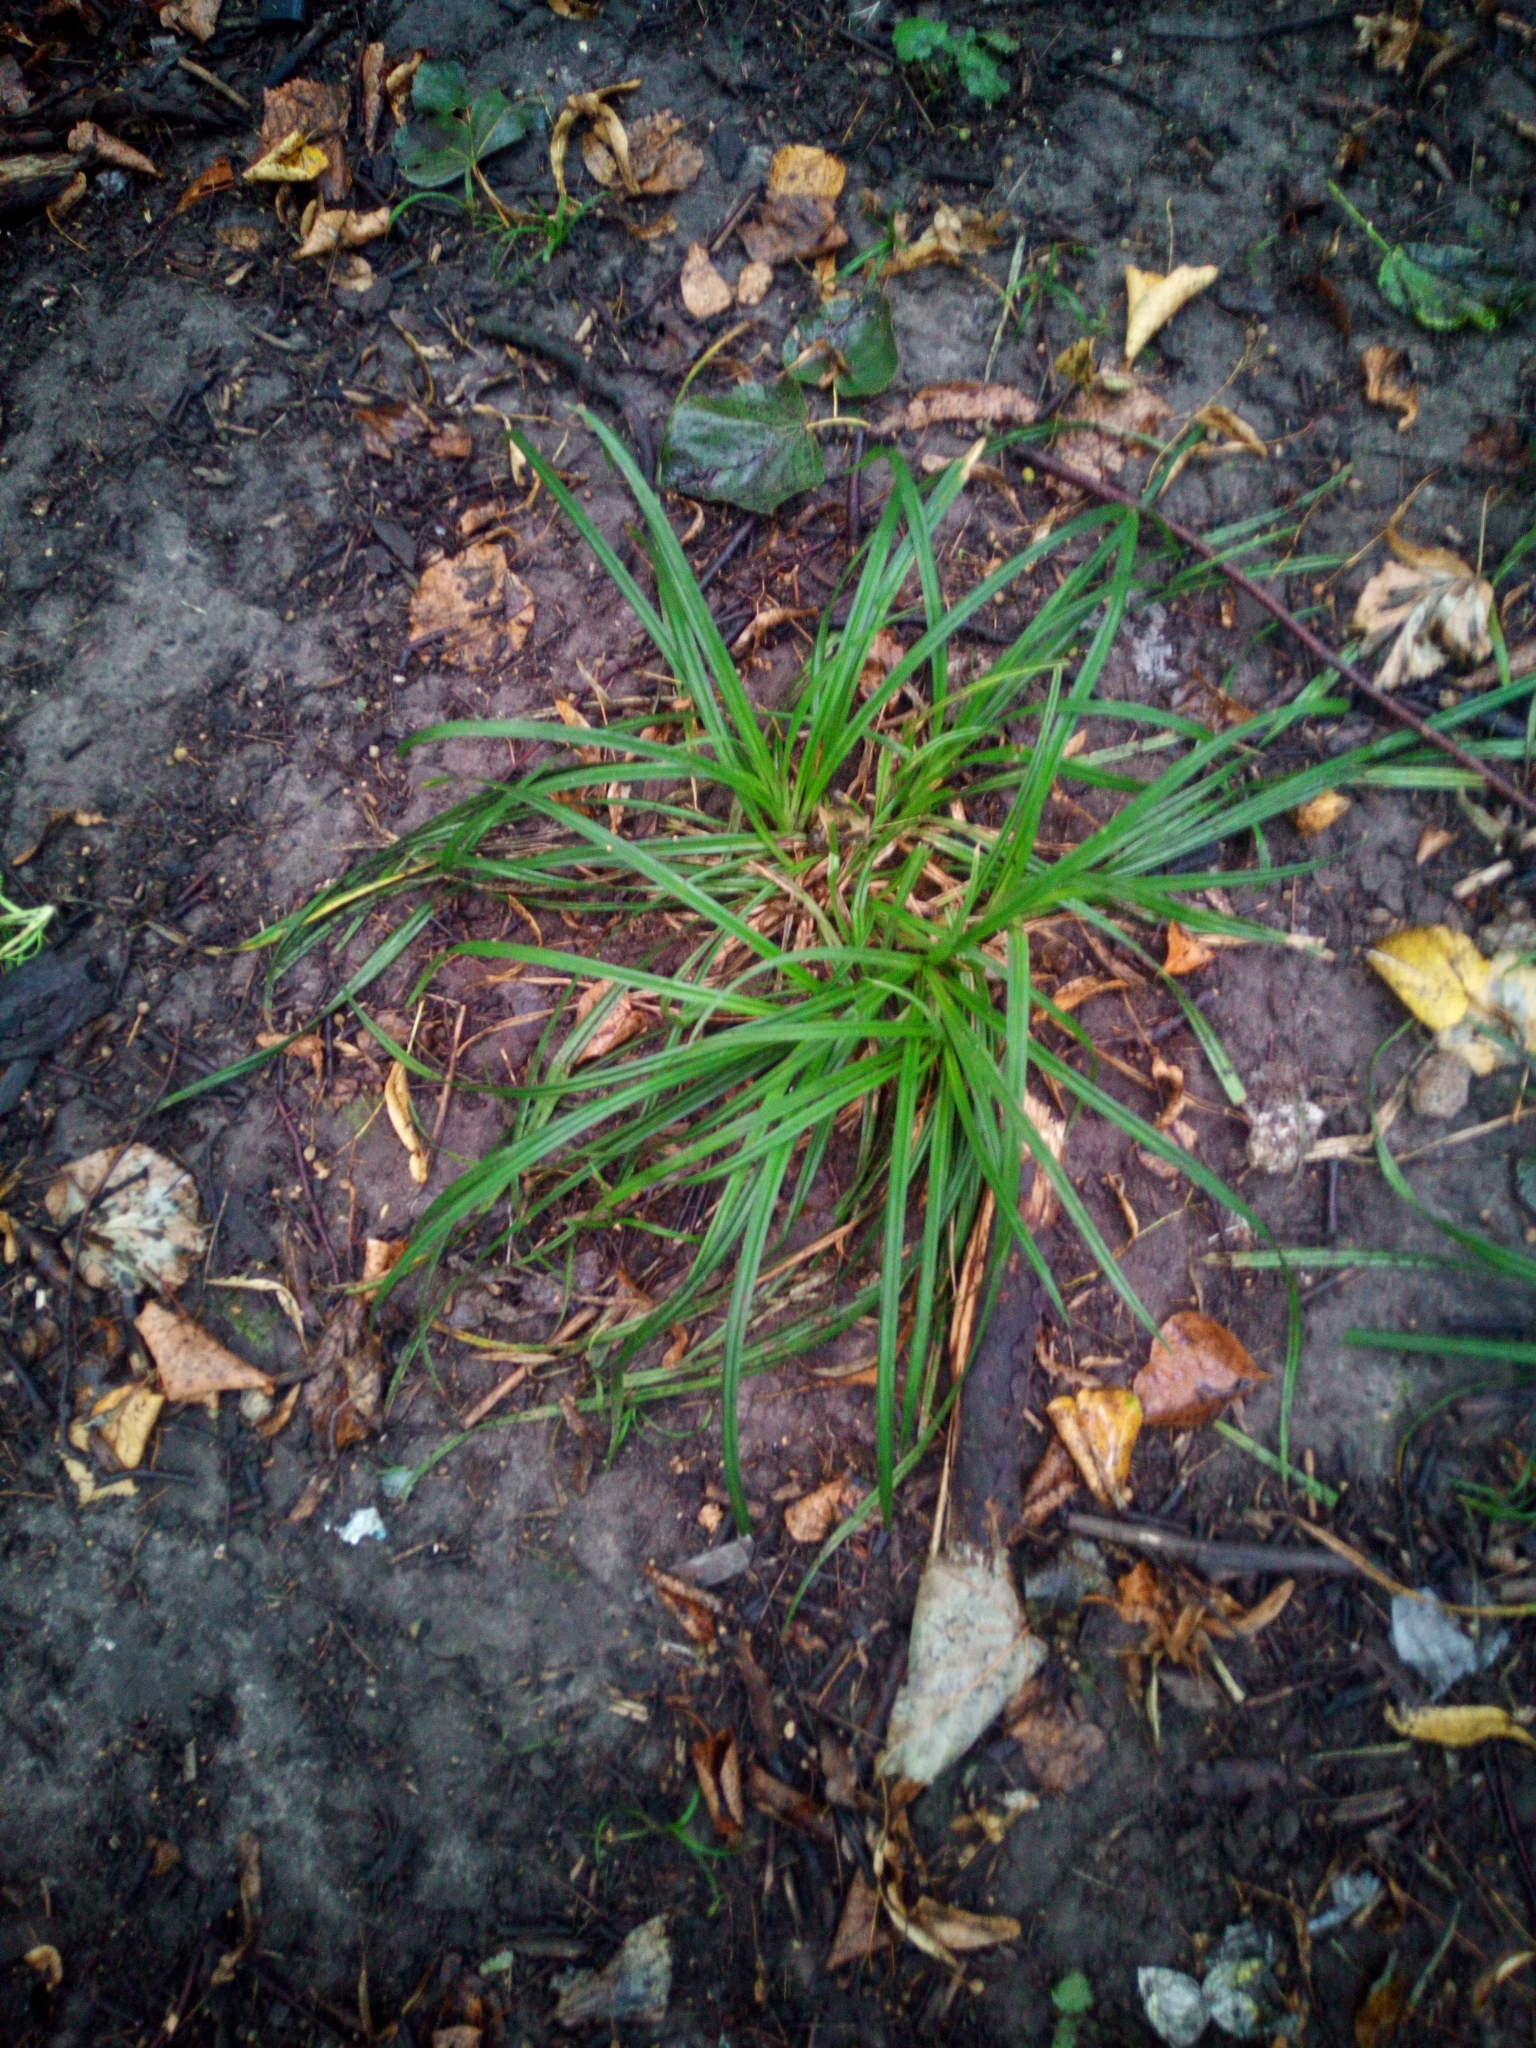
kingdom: Plantae
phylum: Tracheophyta
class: Liliopsida
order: Poales
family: Cyperaceae
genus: Carex
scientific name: Carex sylvatica
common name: Wood-sedge
